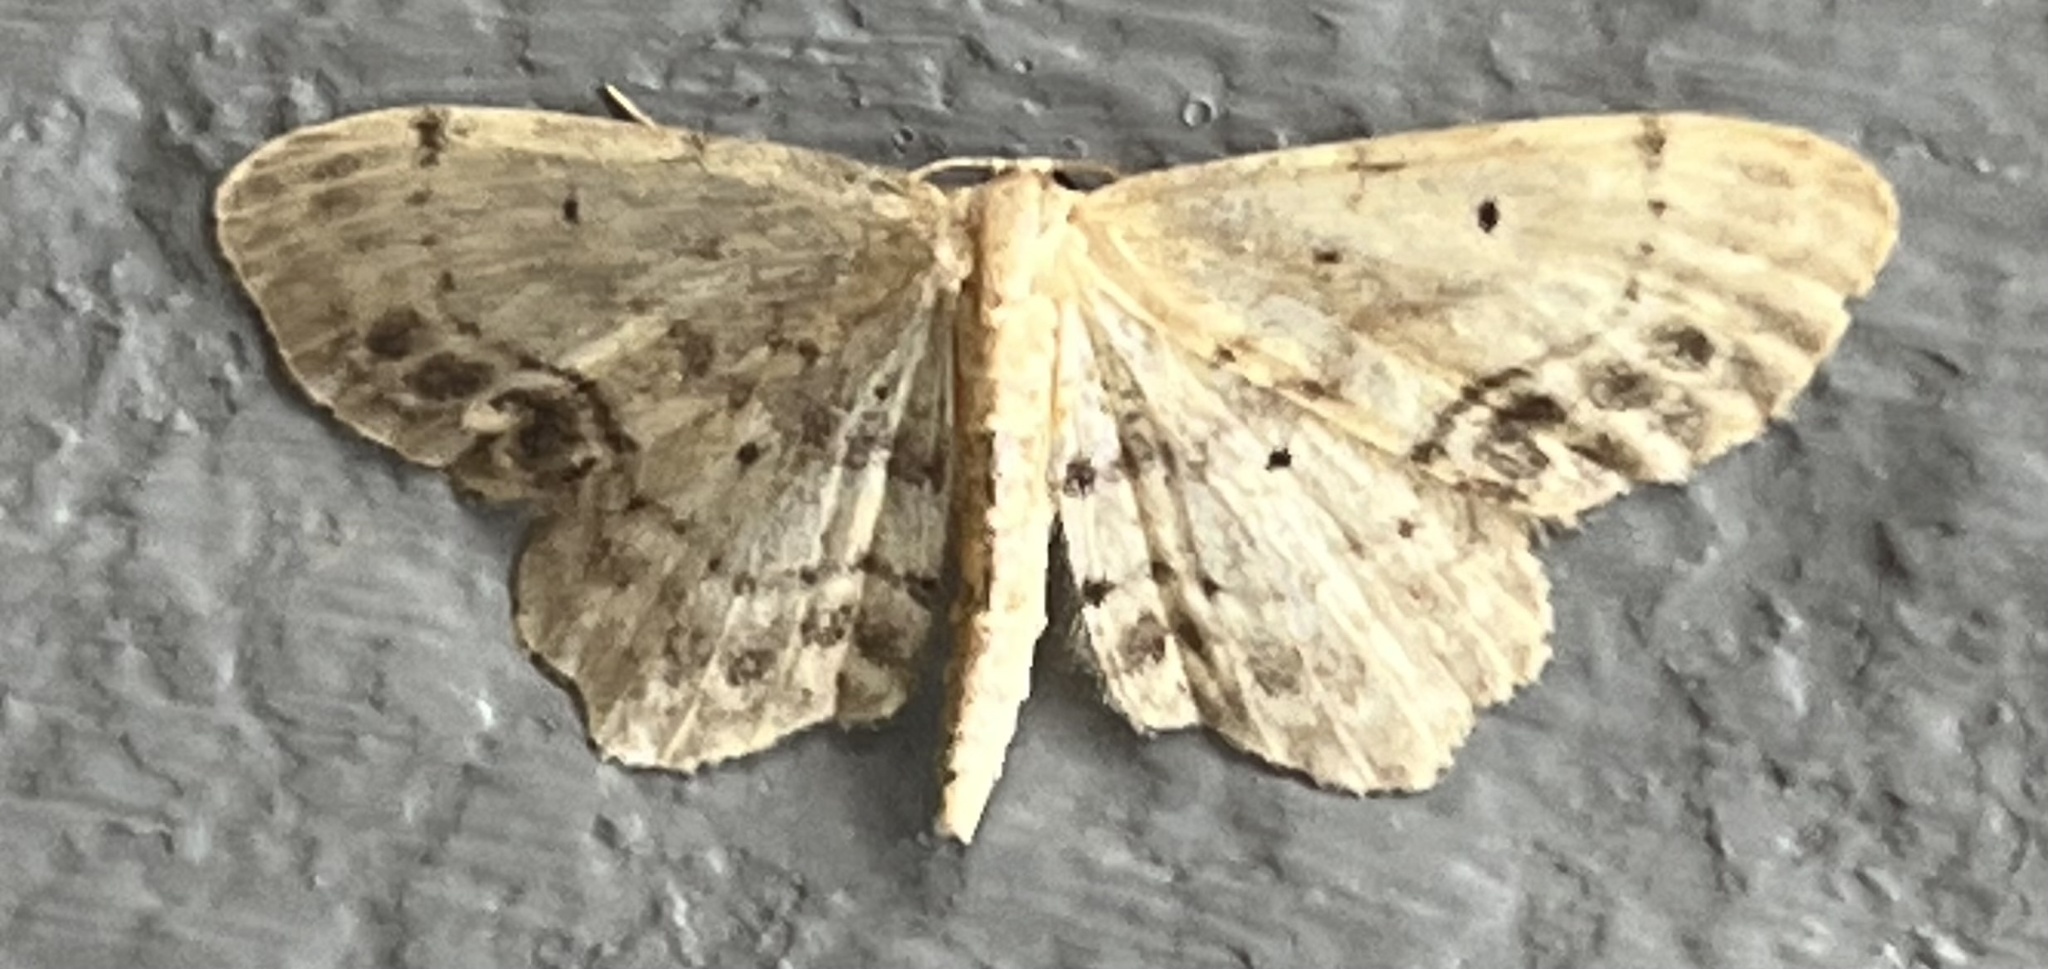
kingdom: Animalia
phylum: Arthropoda
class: Insecta
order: Lepidoptera
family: Geometridae
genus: Idaea
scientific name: Idaea dimidiata
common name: Single-dotted wave
